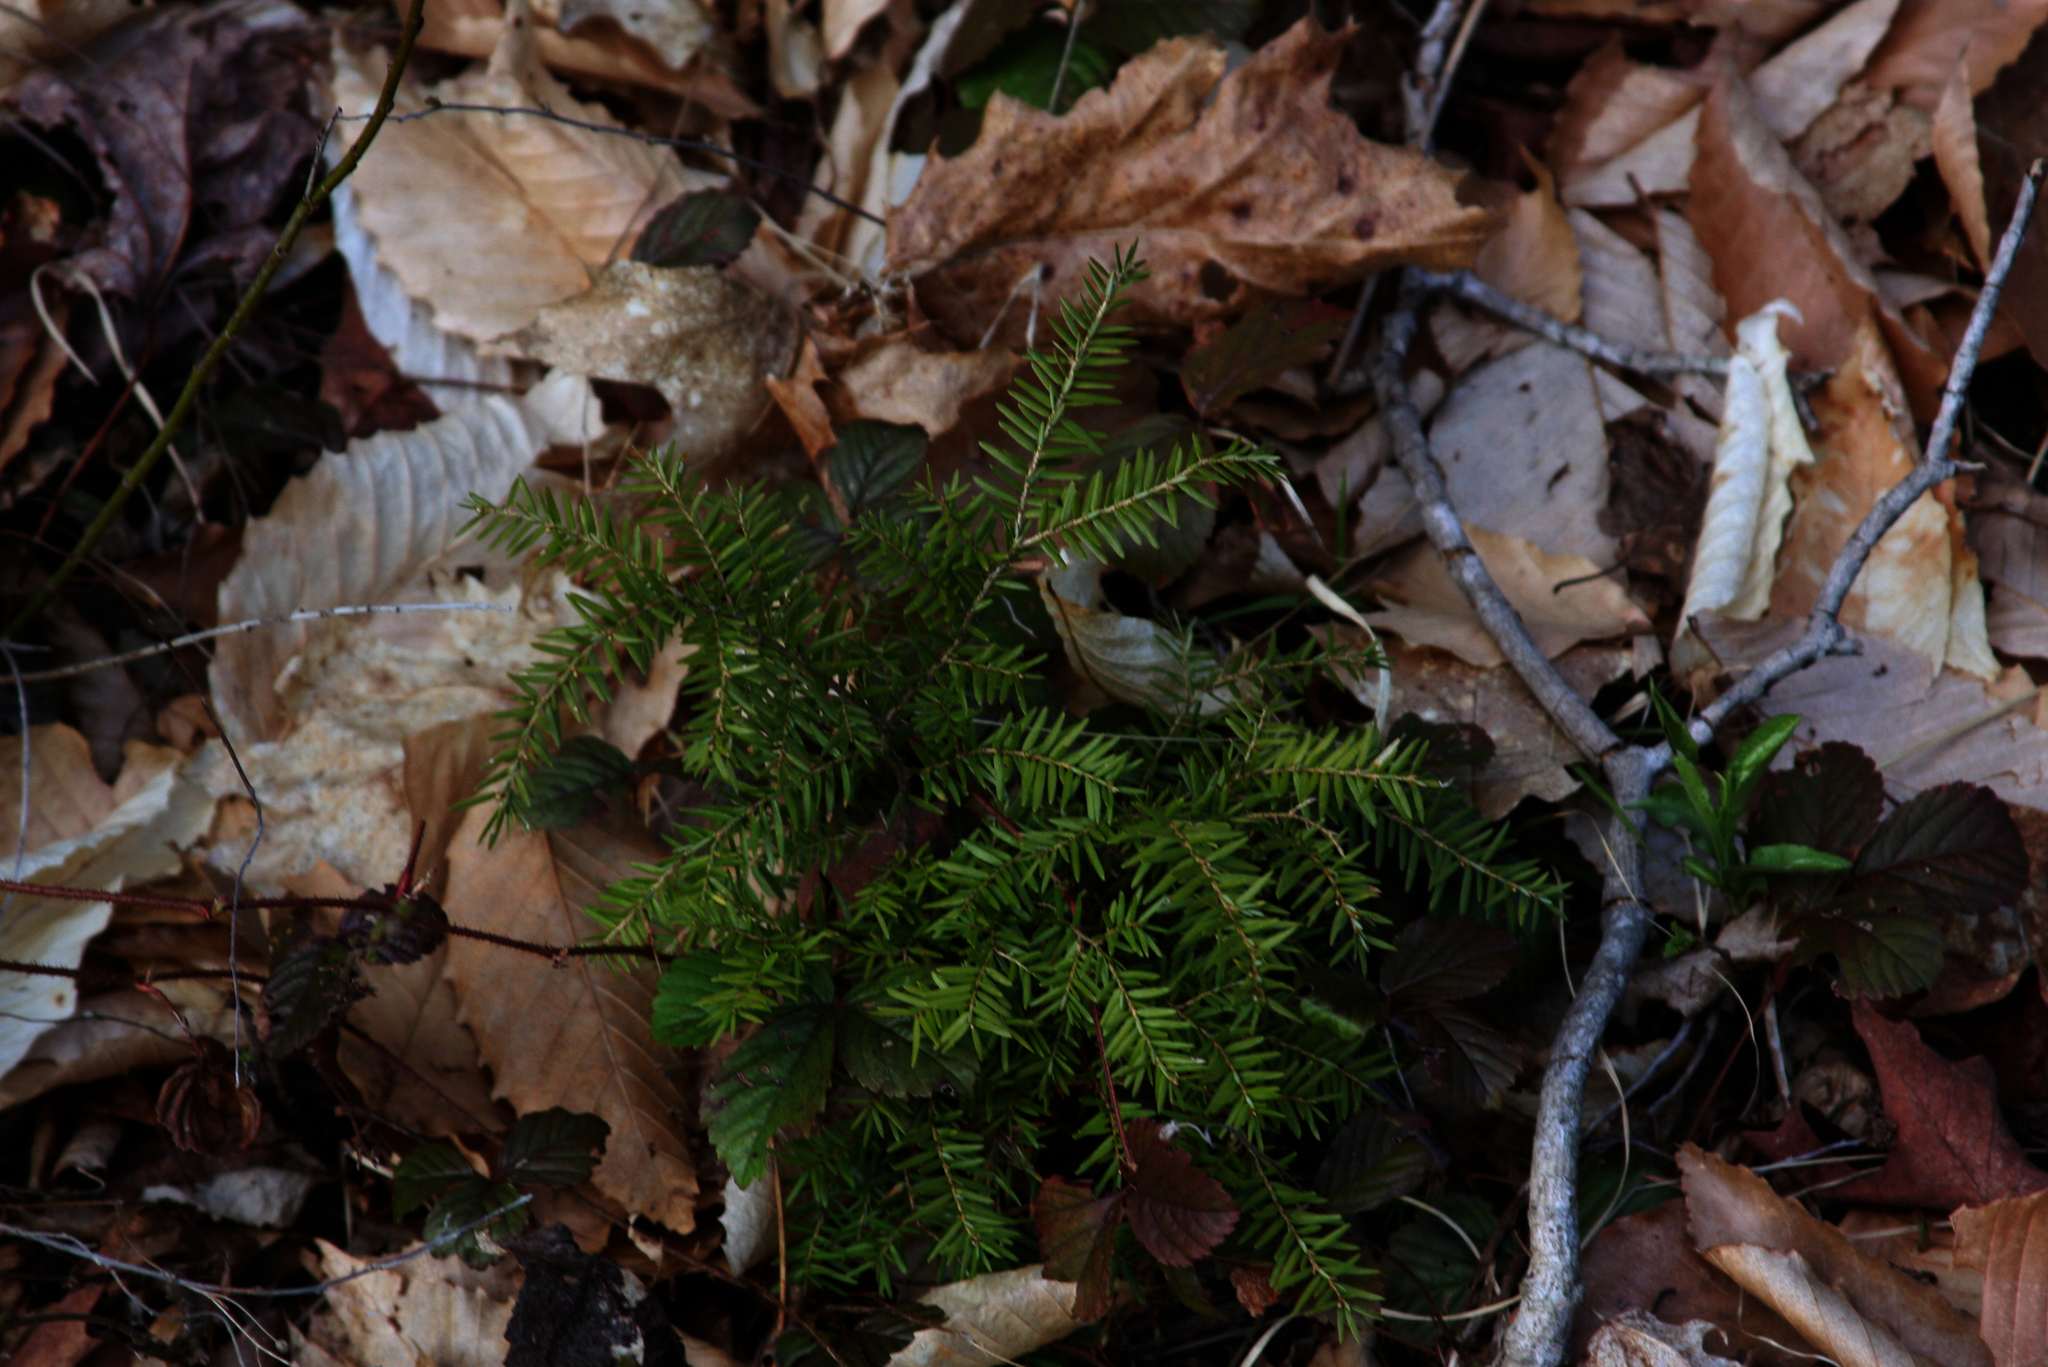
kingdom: Plantae
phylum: Tracheophyta
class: Pinopsida
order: Pinales
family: Pinaceae
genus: Tsuga
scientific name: Tsuga canadensis
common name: Eastern hemlock
